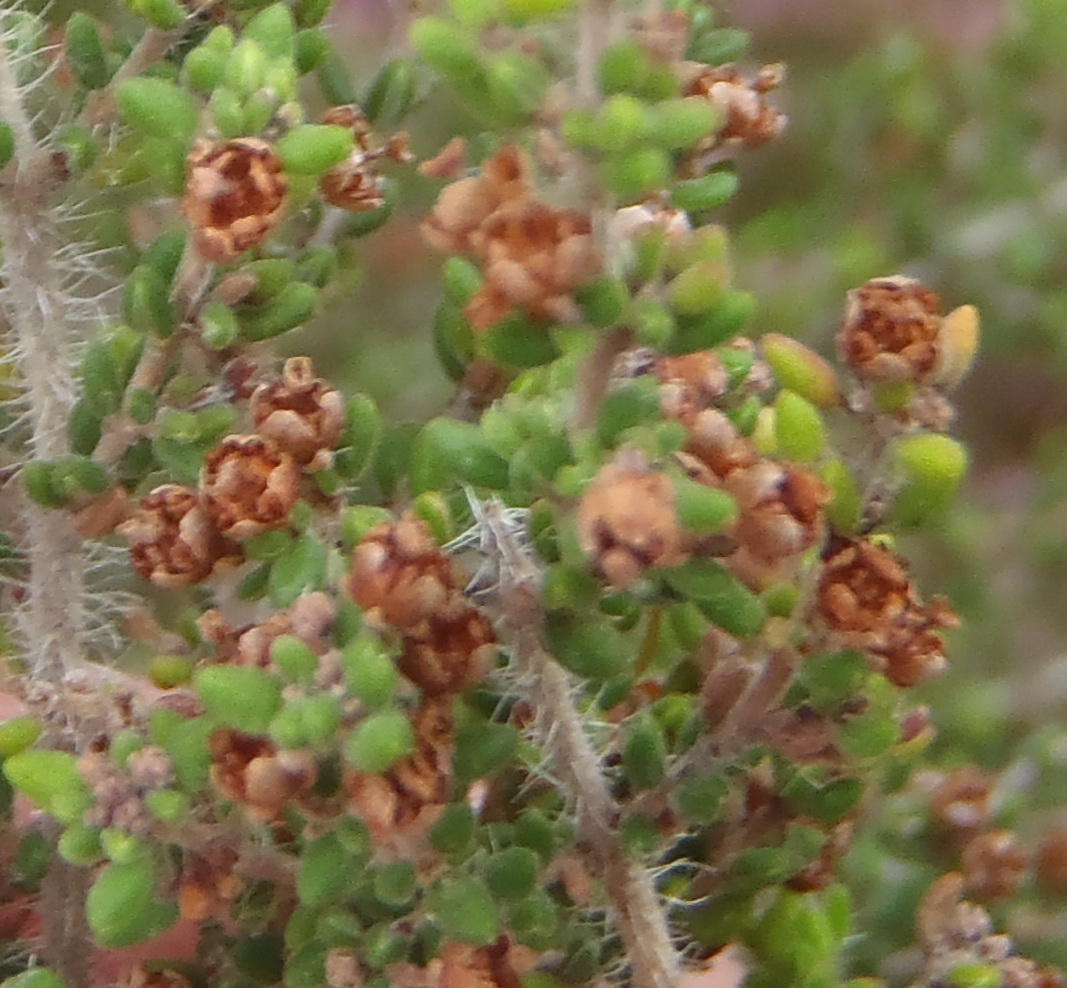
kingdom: Plantae
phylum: Tracheophyta
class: Magnoliopsida
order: Ericales
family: Ericaceae
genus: Erica
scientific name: Erica leucopelta
